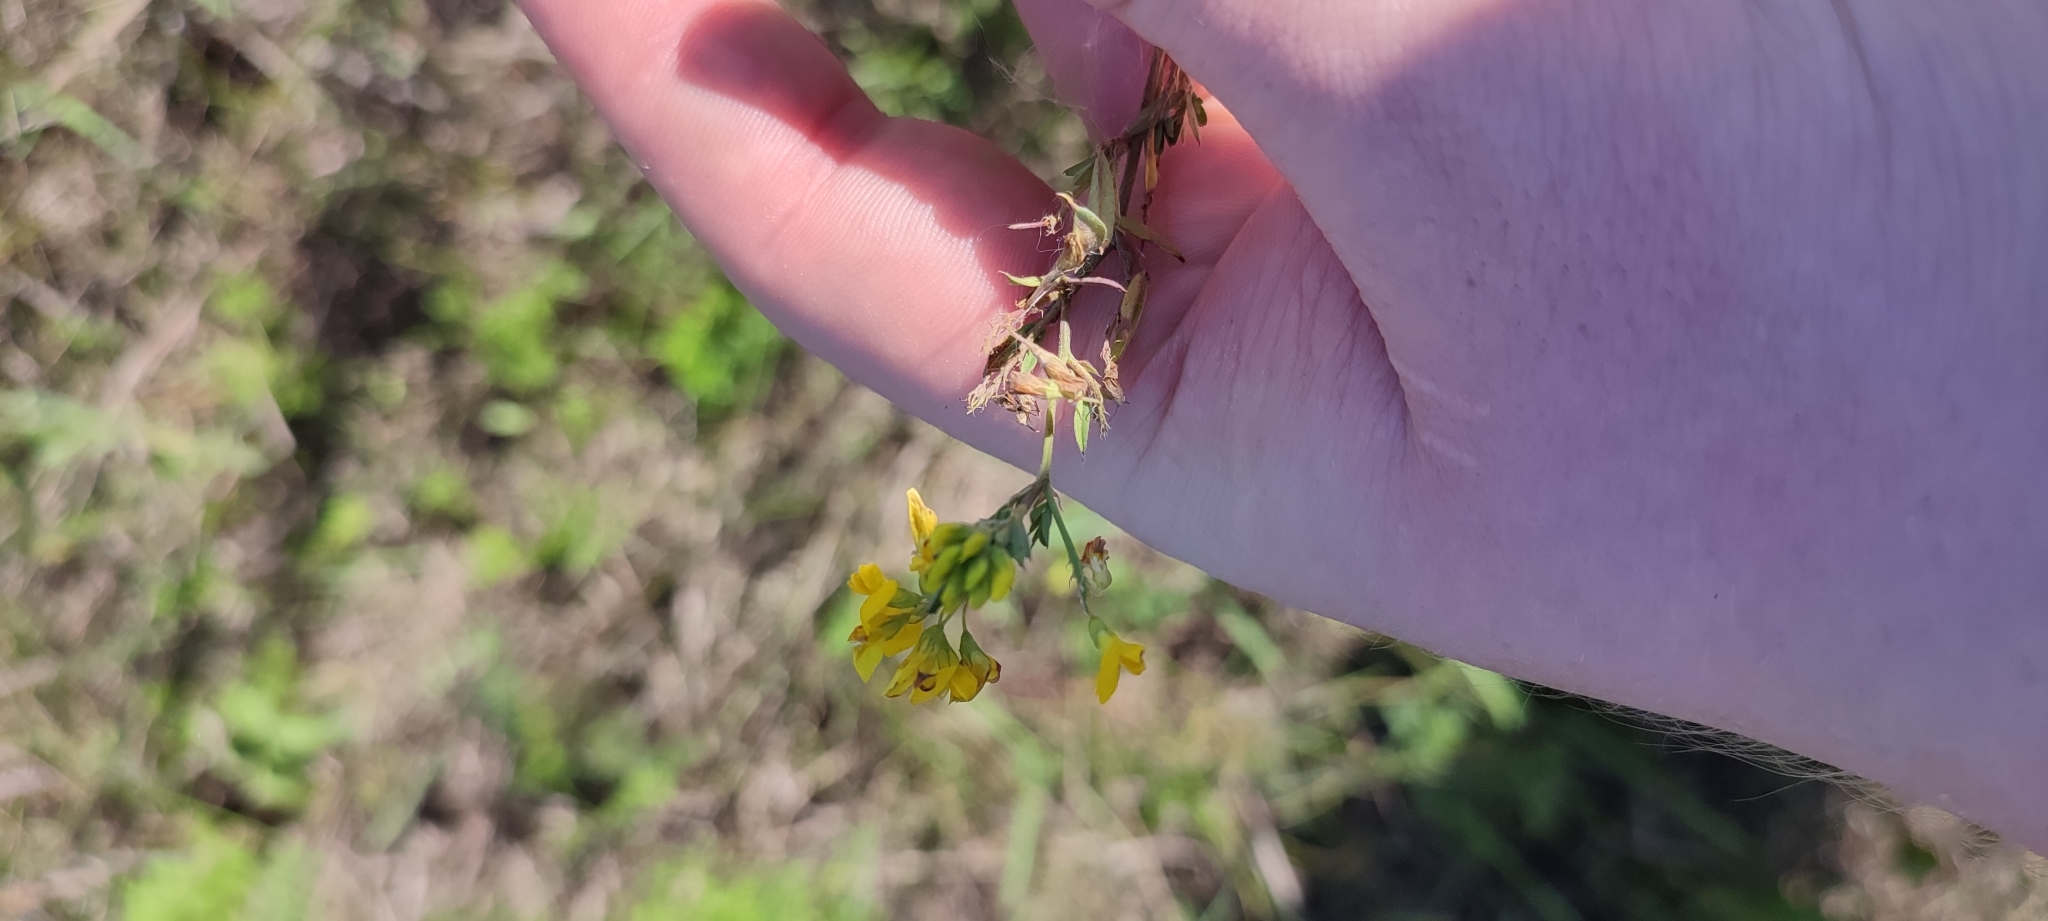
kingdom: Plantae
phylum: Tracheophyta
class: Magnoliopsida
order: Fabales
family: Fabaceae
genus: Medicago
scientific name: Medicago falcata
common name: Sickle medick
